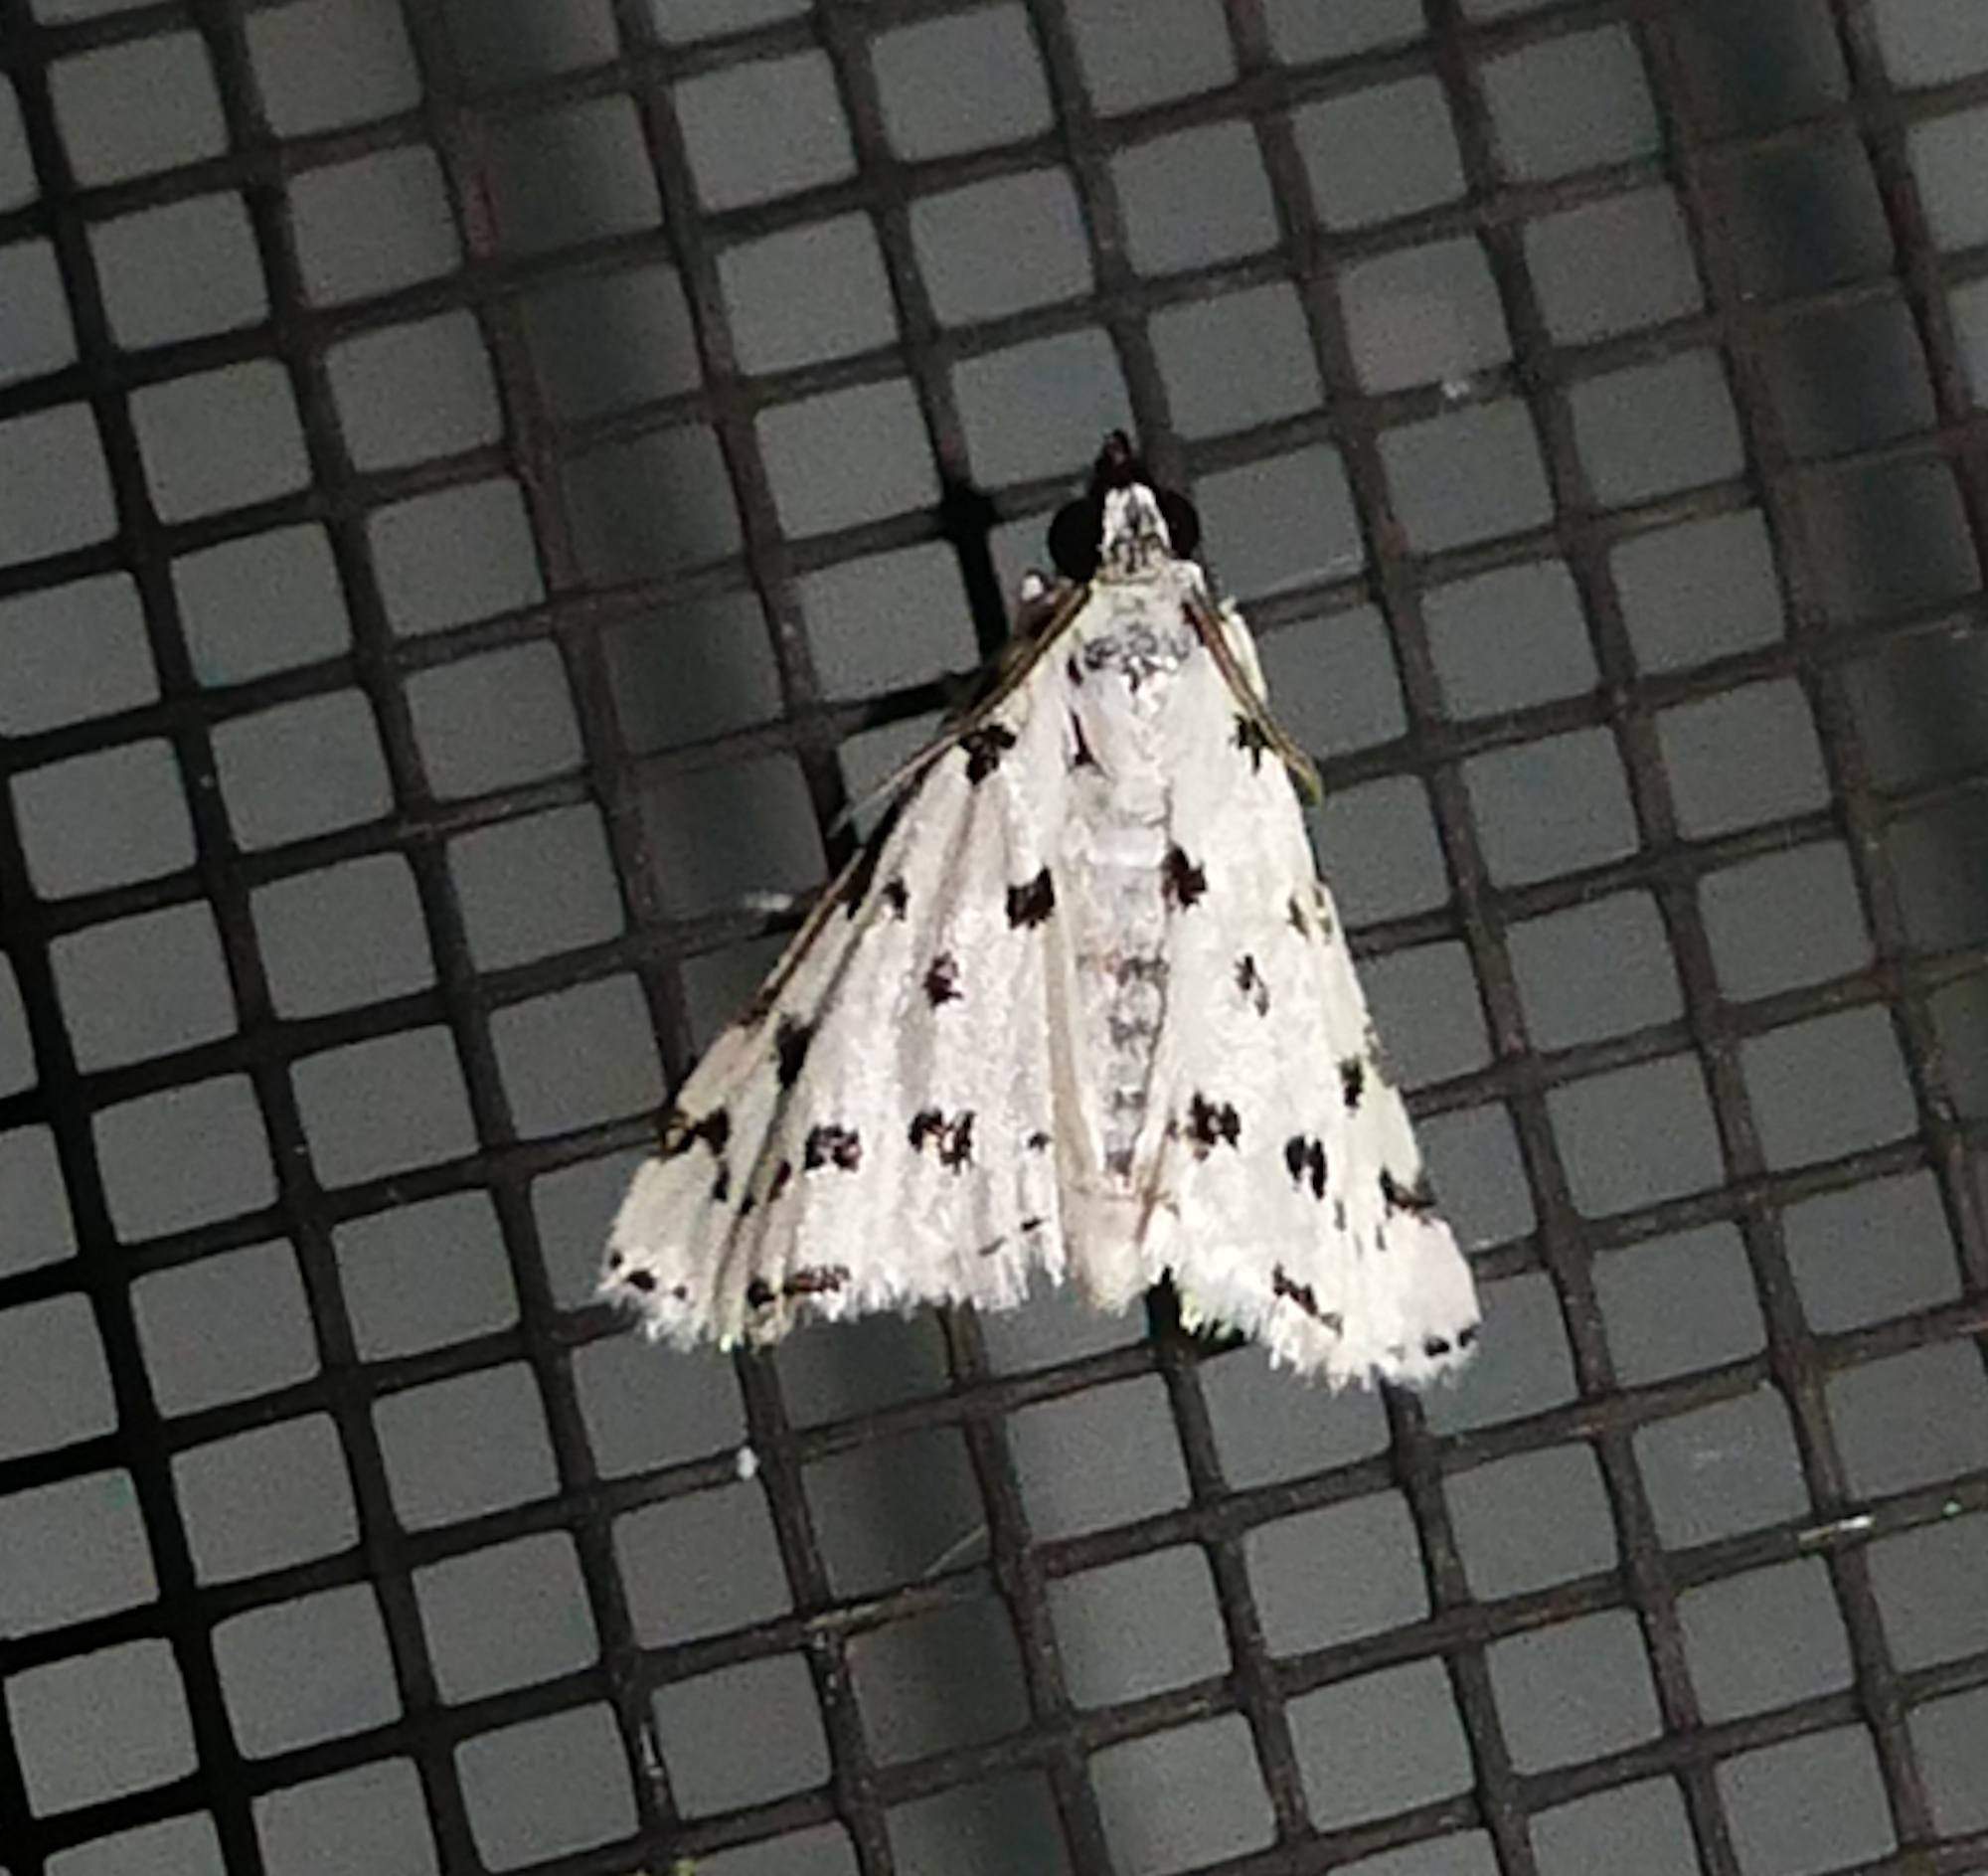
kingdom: Animalia
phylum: Arthropoda
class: Insecta
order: Lepidoptera
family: Crambidae
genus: Eustixia
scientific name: Eustixia pupula
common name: American cabbage pearl
